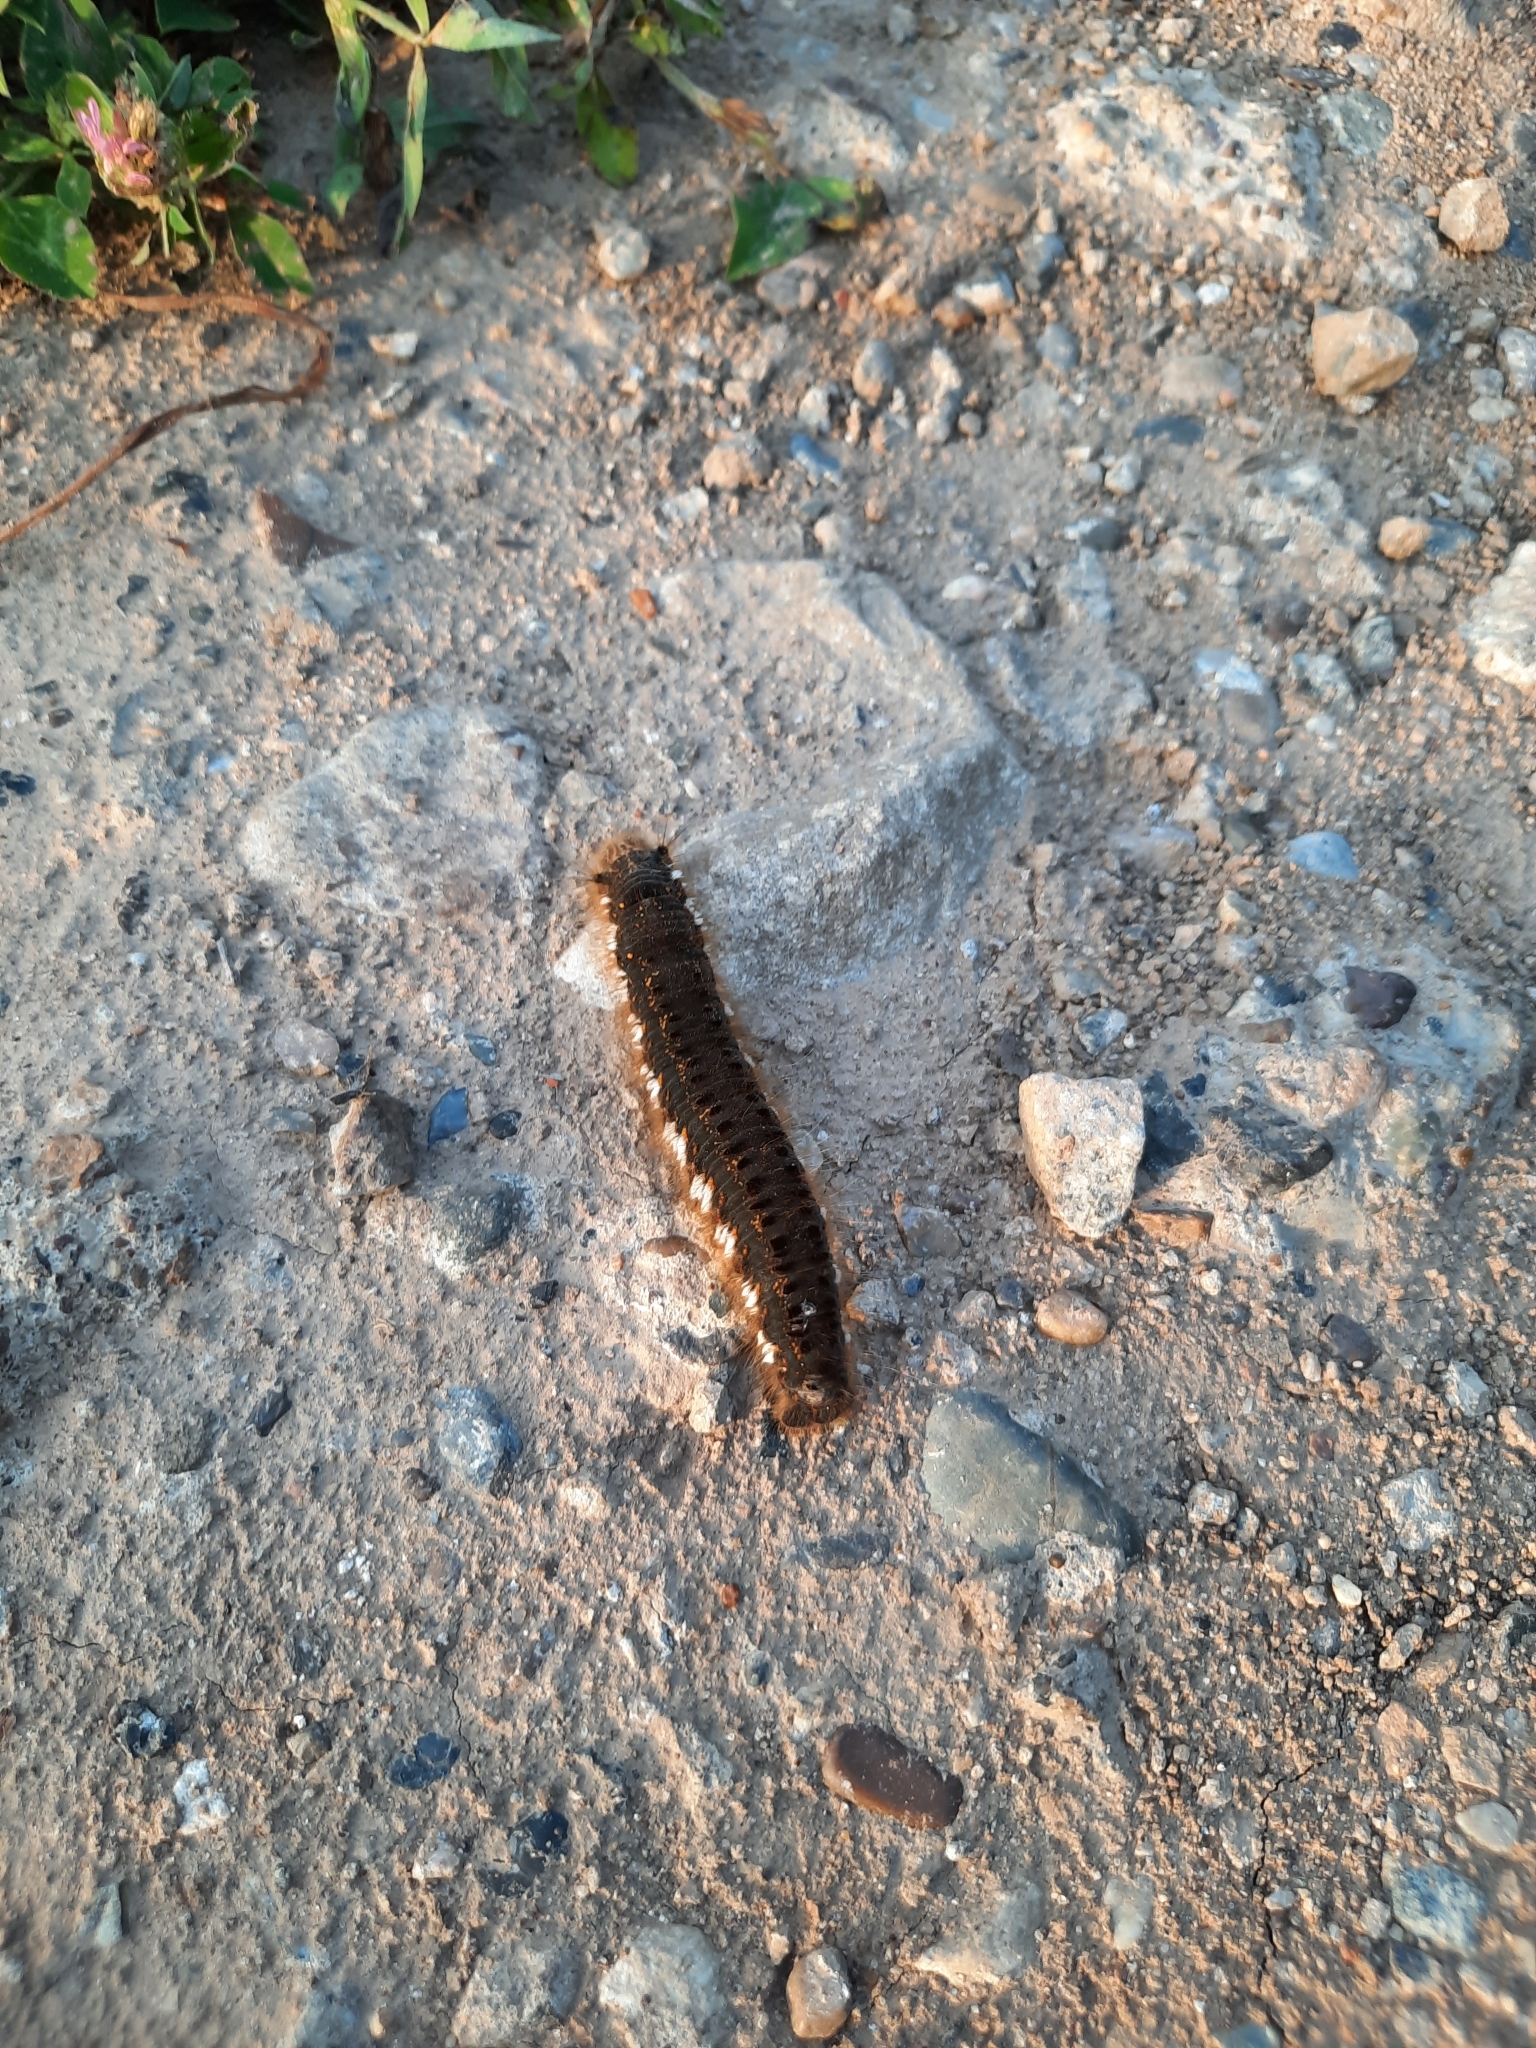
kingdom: Animalia
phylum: Arthropoda
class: Insecta
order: Lepidoptera
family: Lasiocampidae
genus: Euthrix
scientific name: Euthrix potatoria
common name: Drinker
